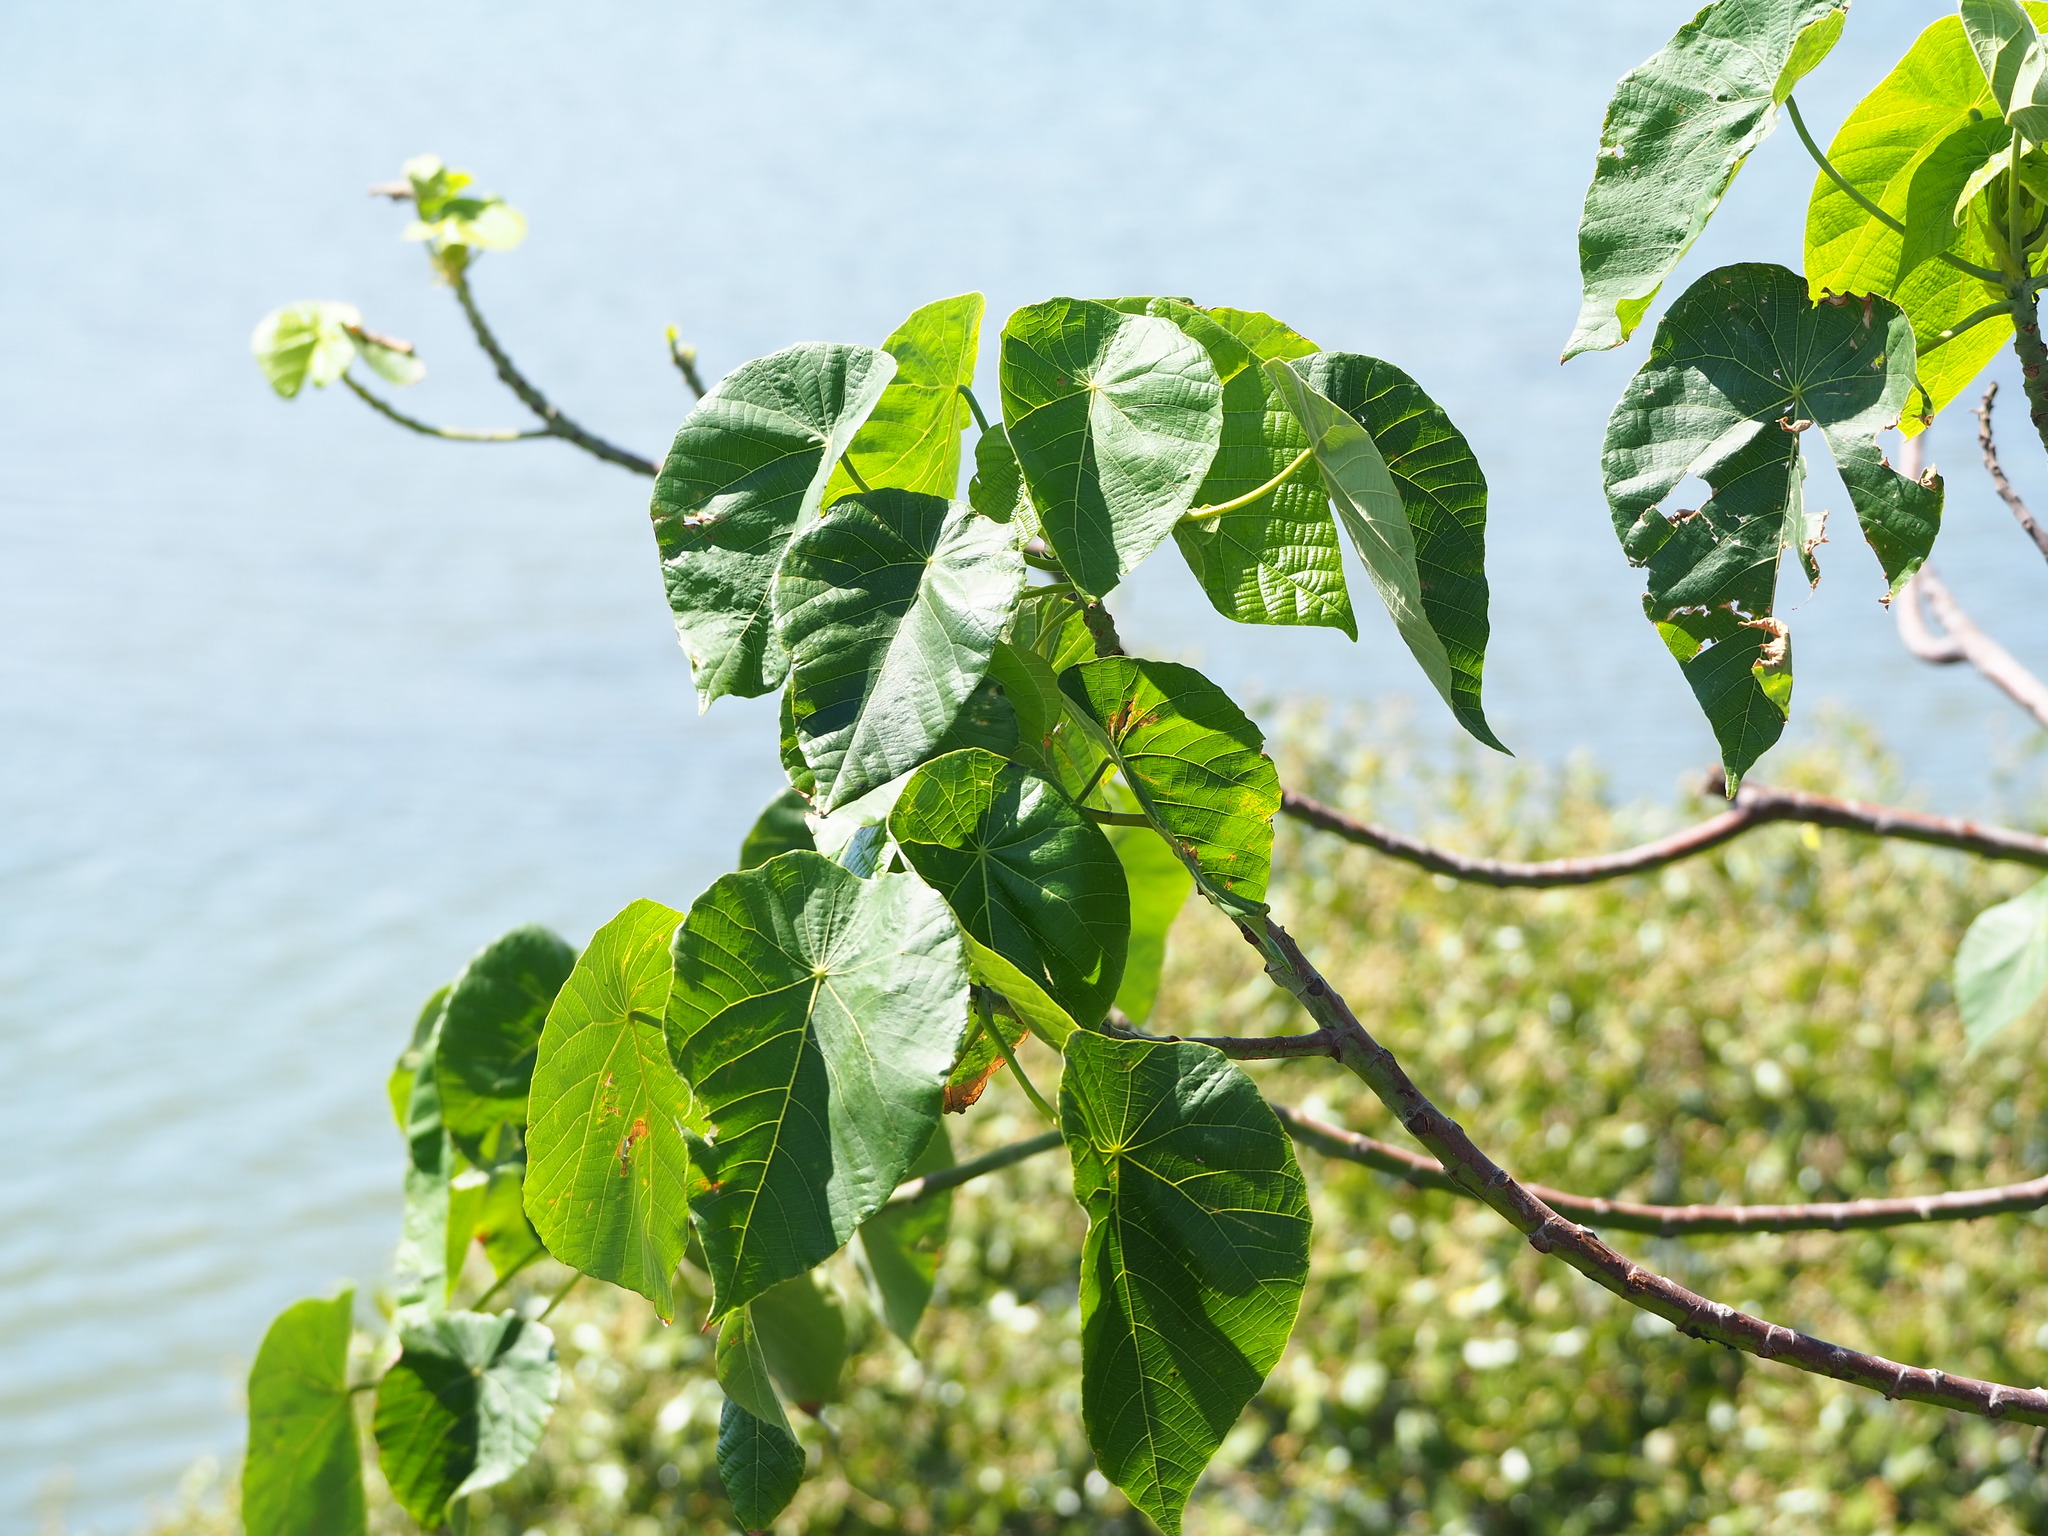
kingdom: Plantae
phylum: Tracheophyta
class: Magnoliopsida
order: Malpighiales
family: Euphorbiaceae
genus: Macaranga
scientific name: Macaranga tanarius
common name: Parasol leaf tree
